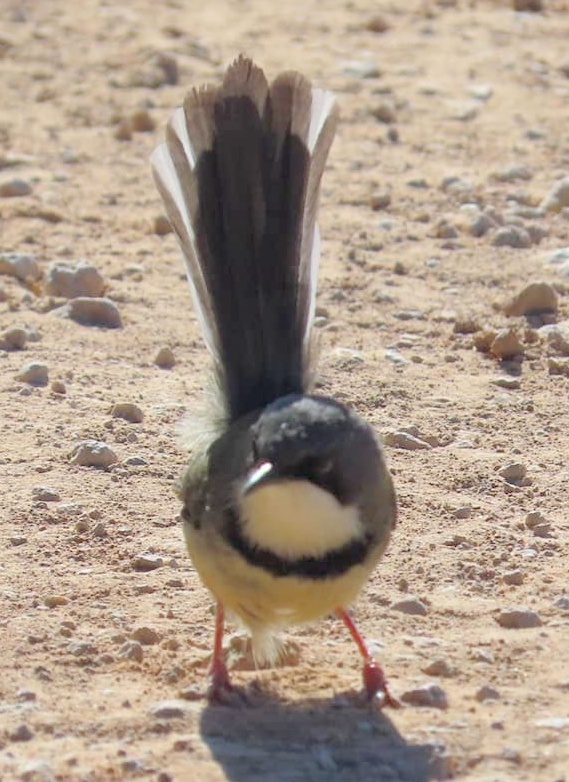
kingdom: Animalia
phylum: Chordata
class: Aves
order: Passeriformes
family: Cisticolidae
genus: Apalis
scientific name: Apalis thoracica
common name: Bar-throated apalis
